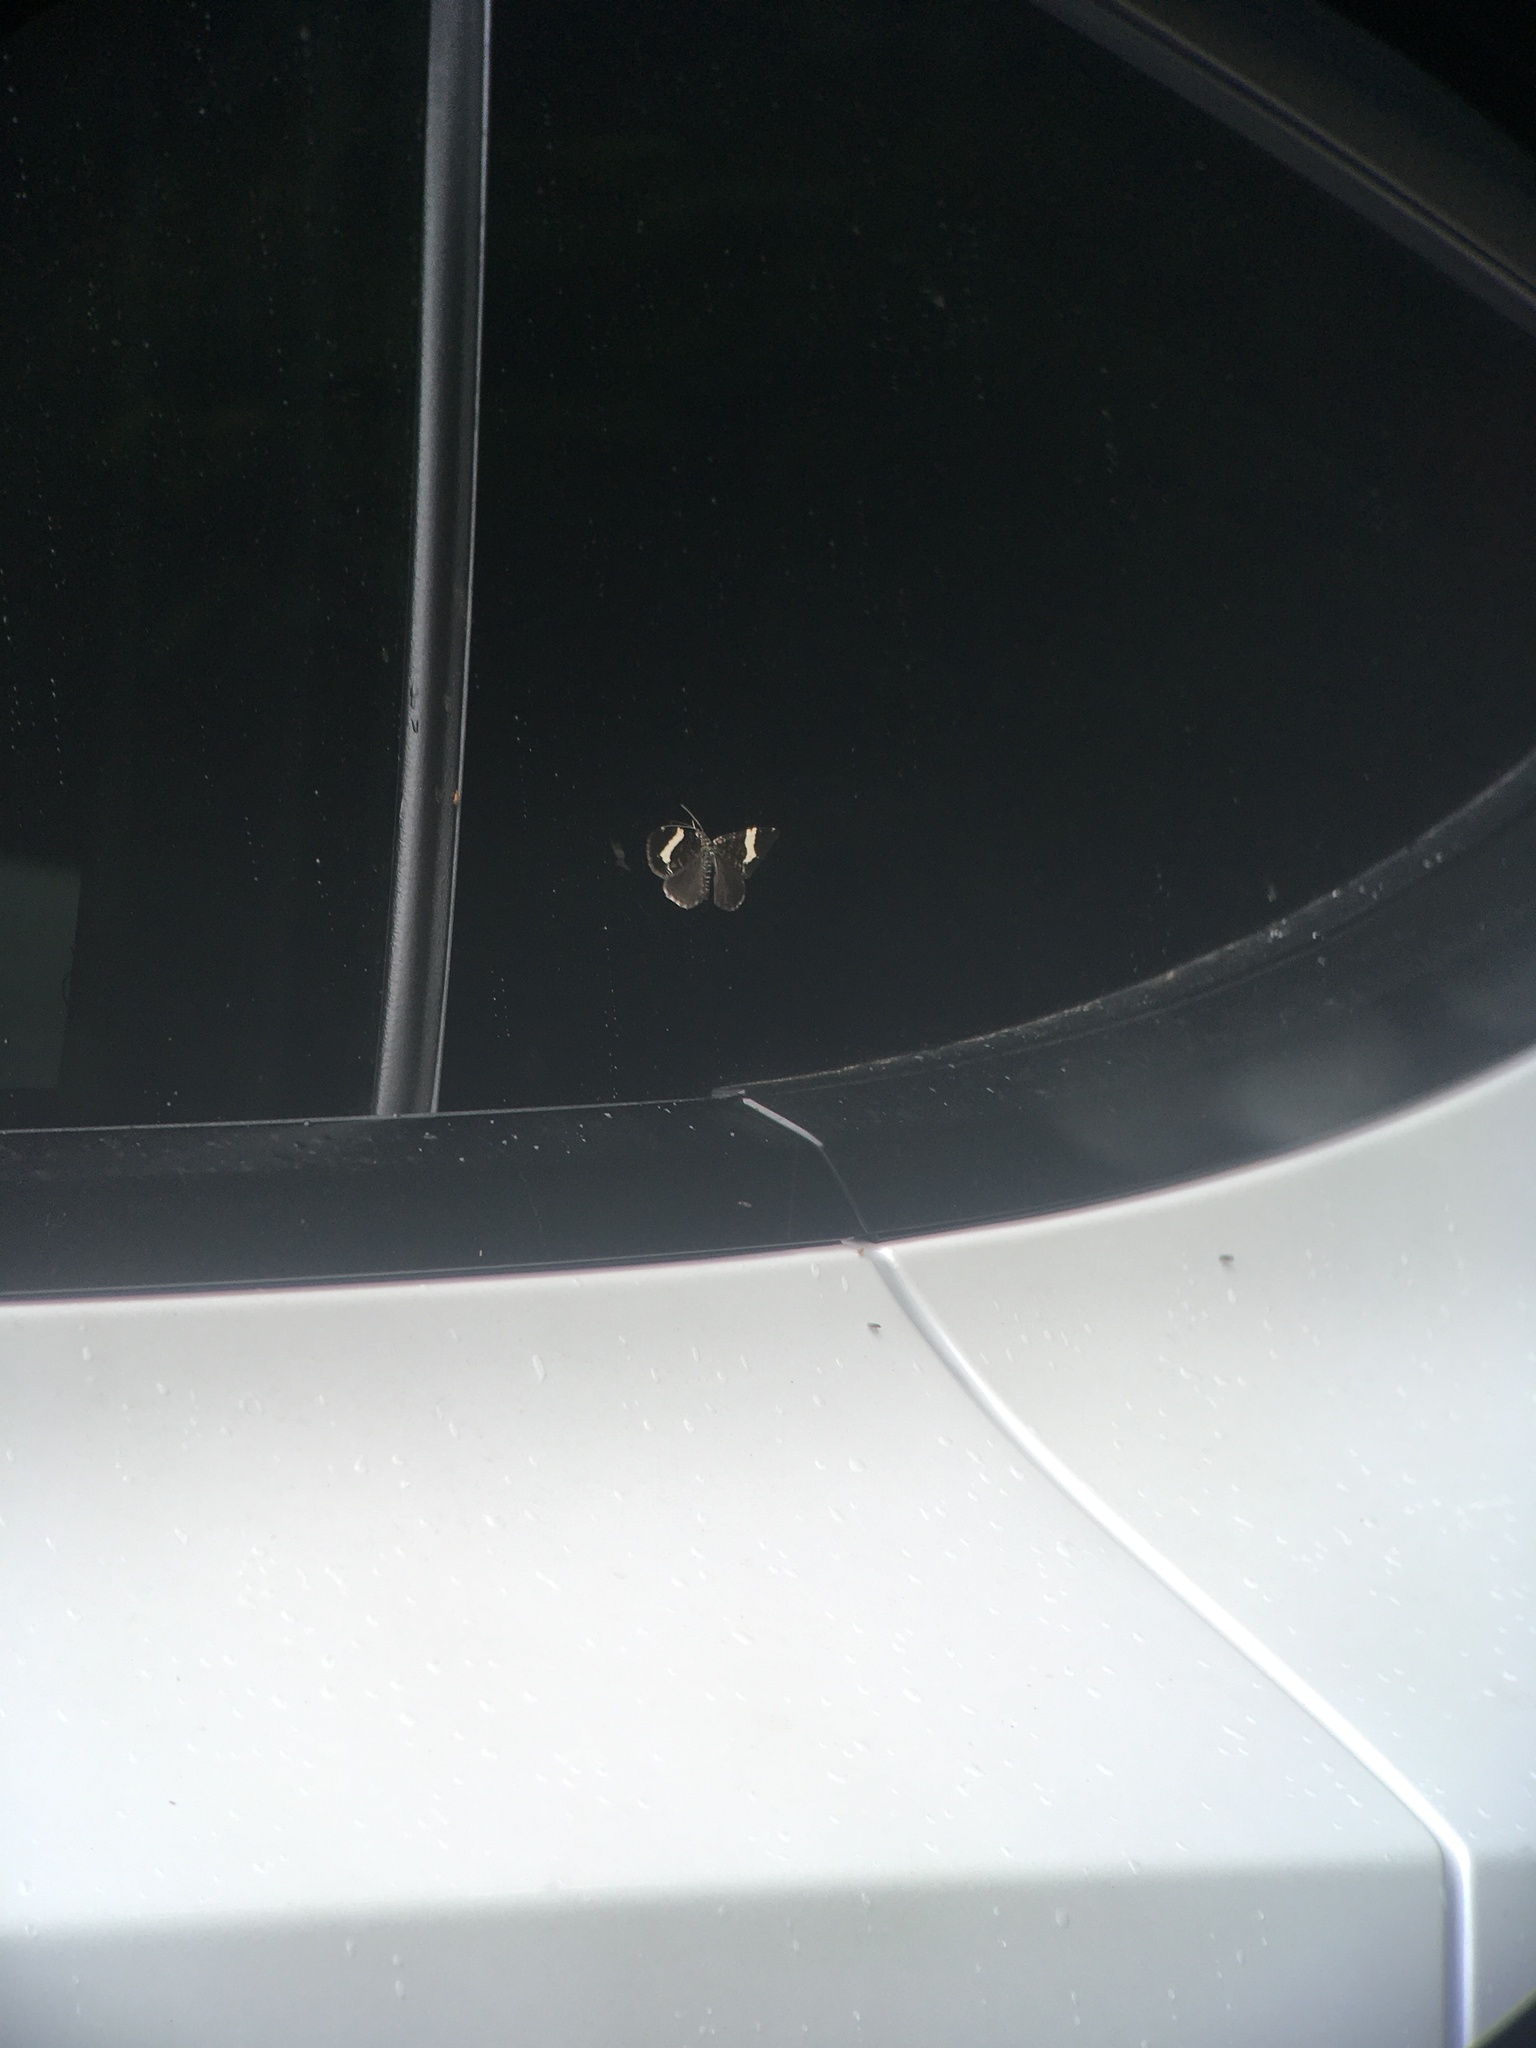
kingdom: Animalia
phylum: Arthropoda
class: Insecta
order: Lepidoptera
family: Geometridae
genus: Trichodezia
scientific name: Trichodezia albovittata
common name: White striped black
